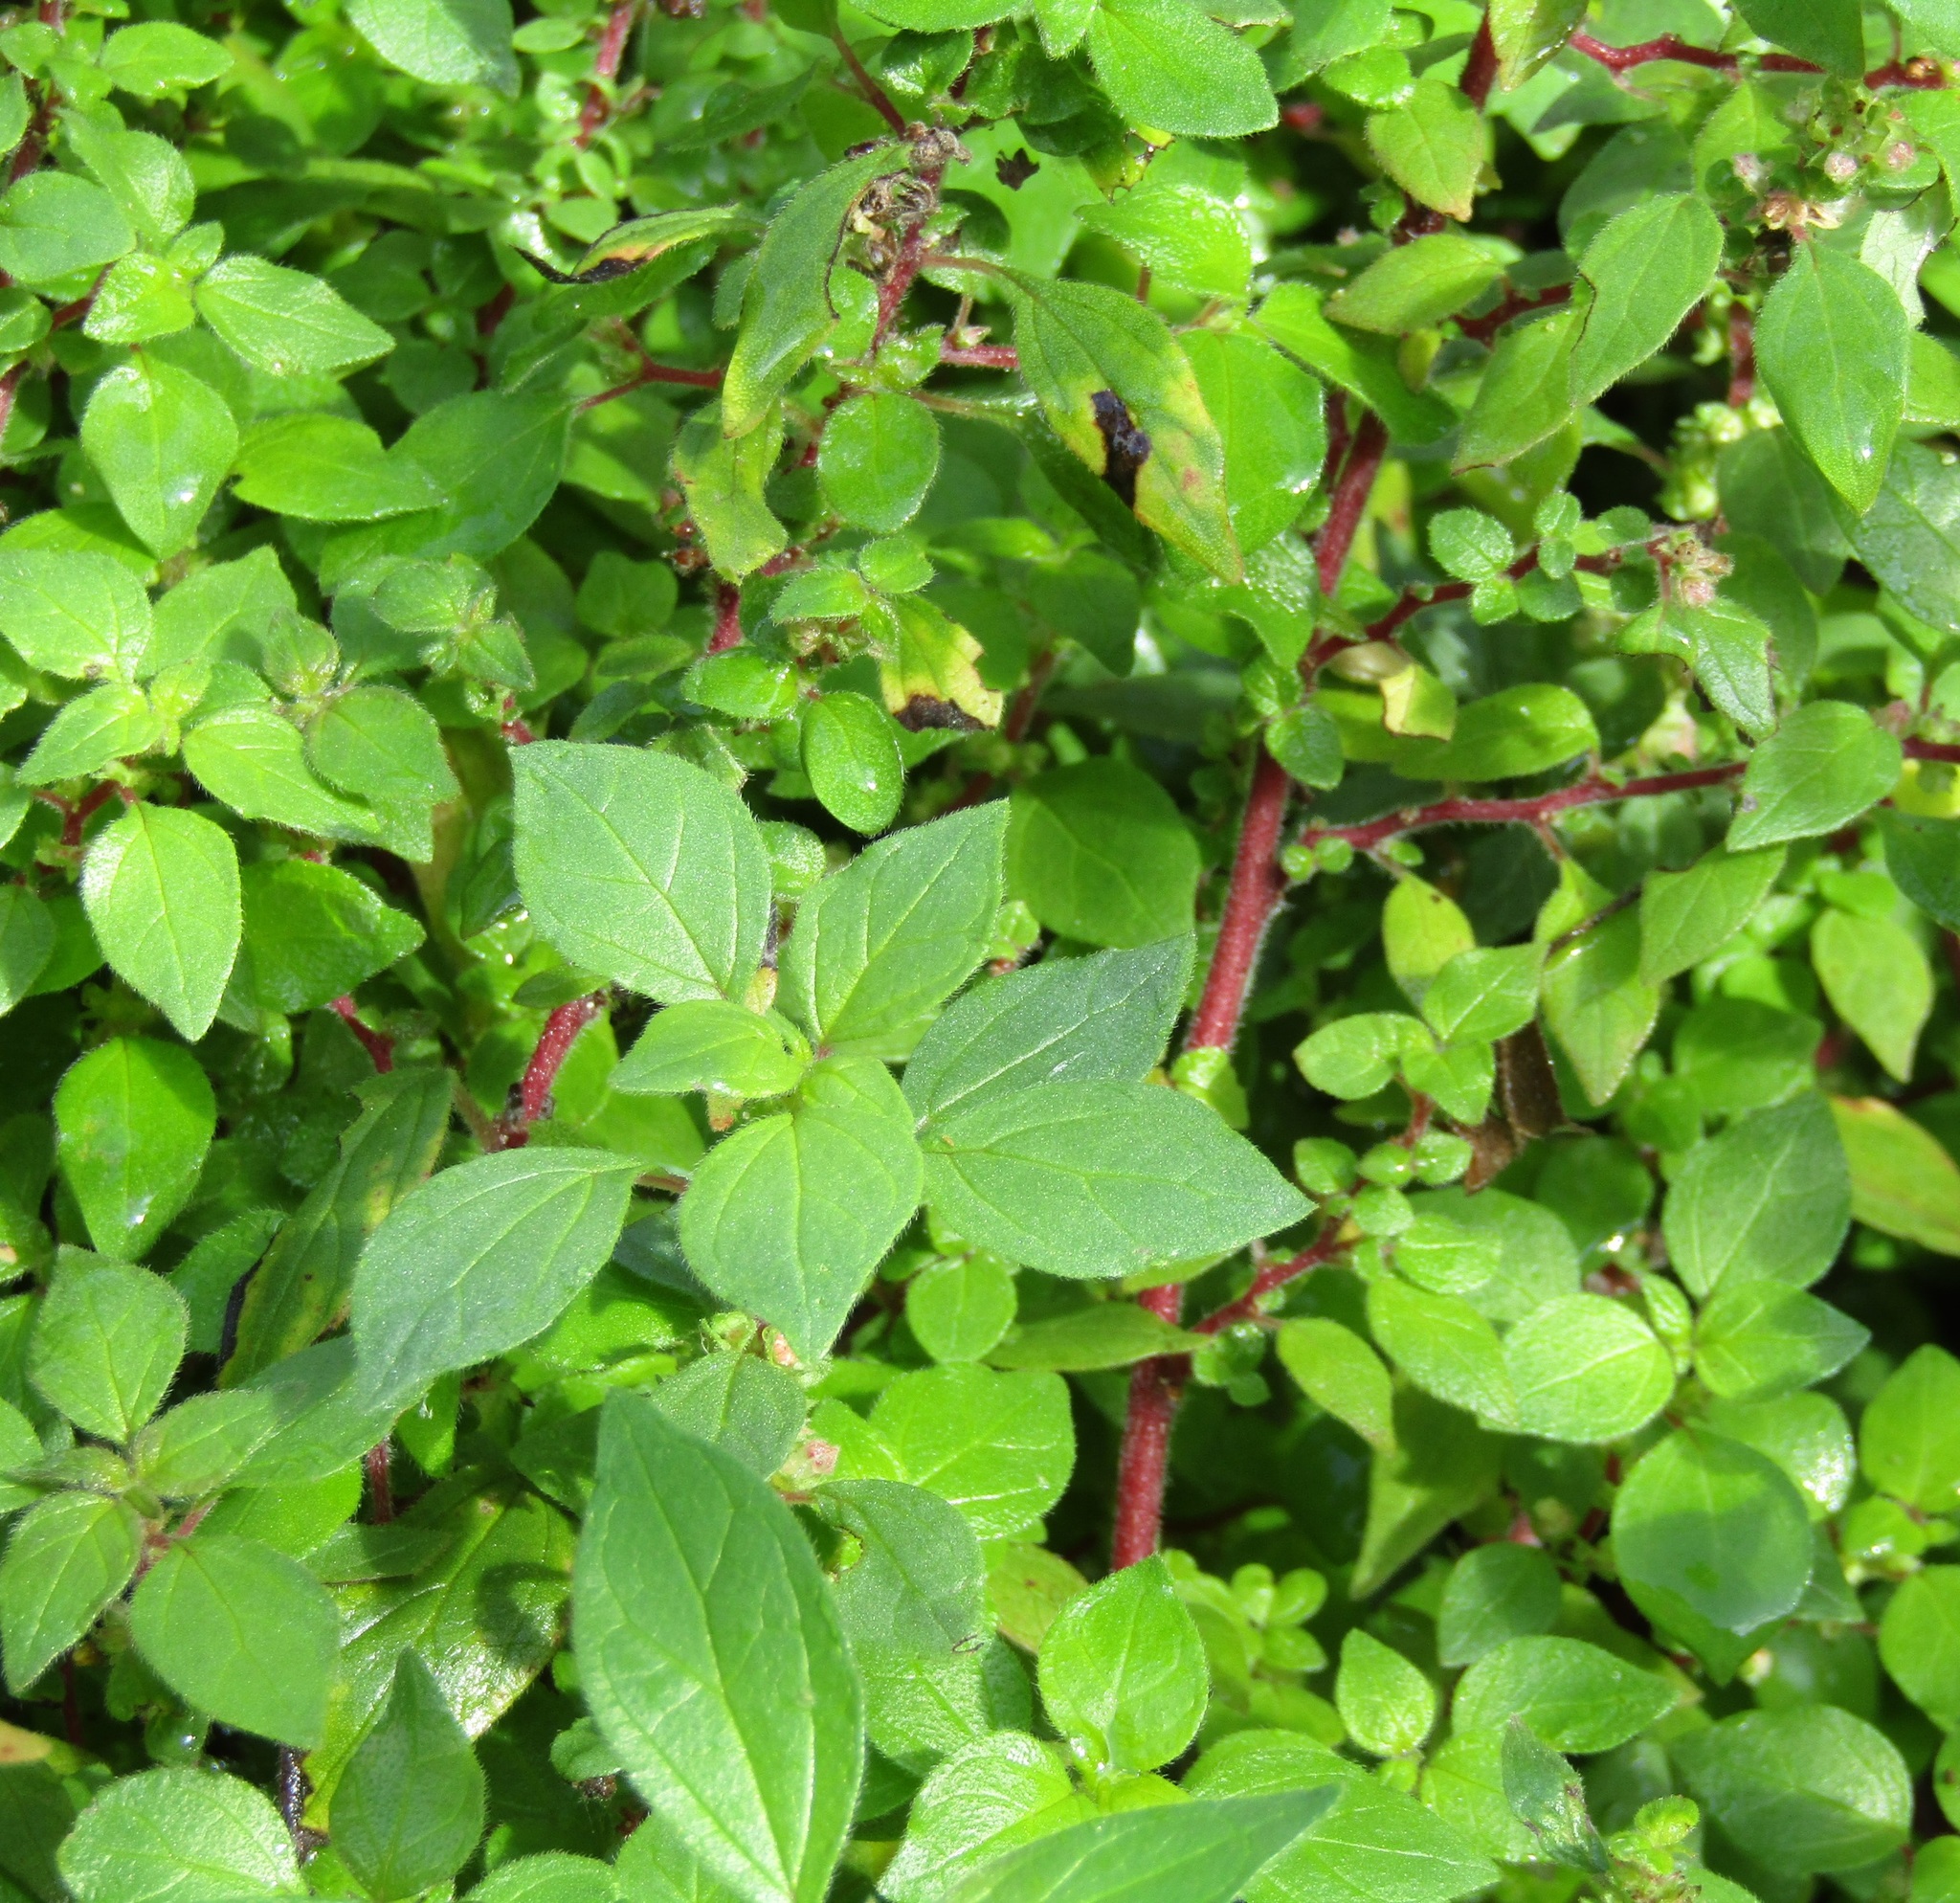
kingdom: Plantae
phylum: Tracheophyta
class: Magnoliopsida
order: Rosales
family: Urticaceae
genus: Parietaria
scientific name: Parietaria judaica
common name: Pellitory-of-the-wall
